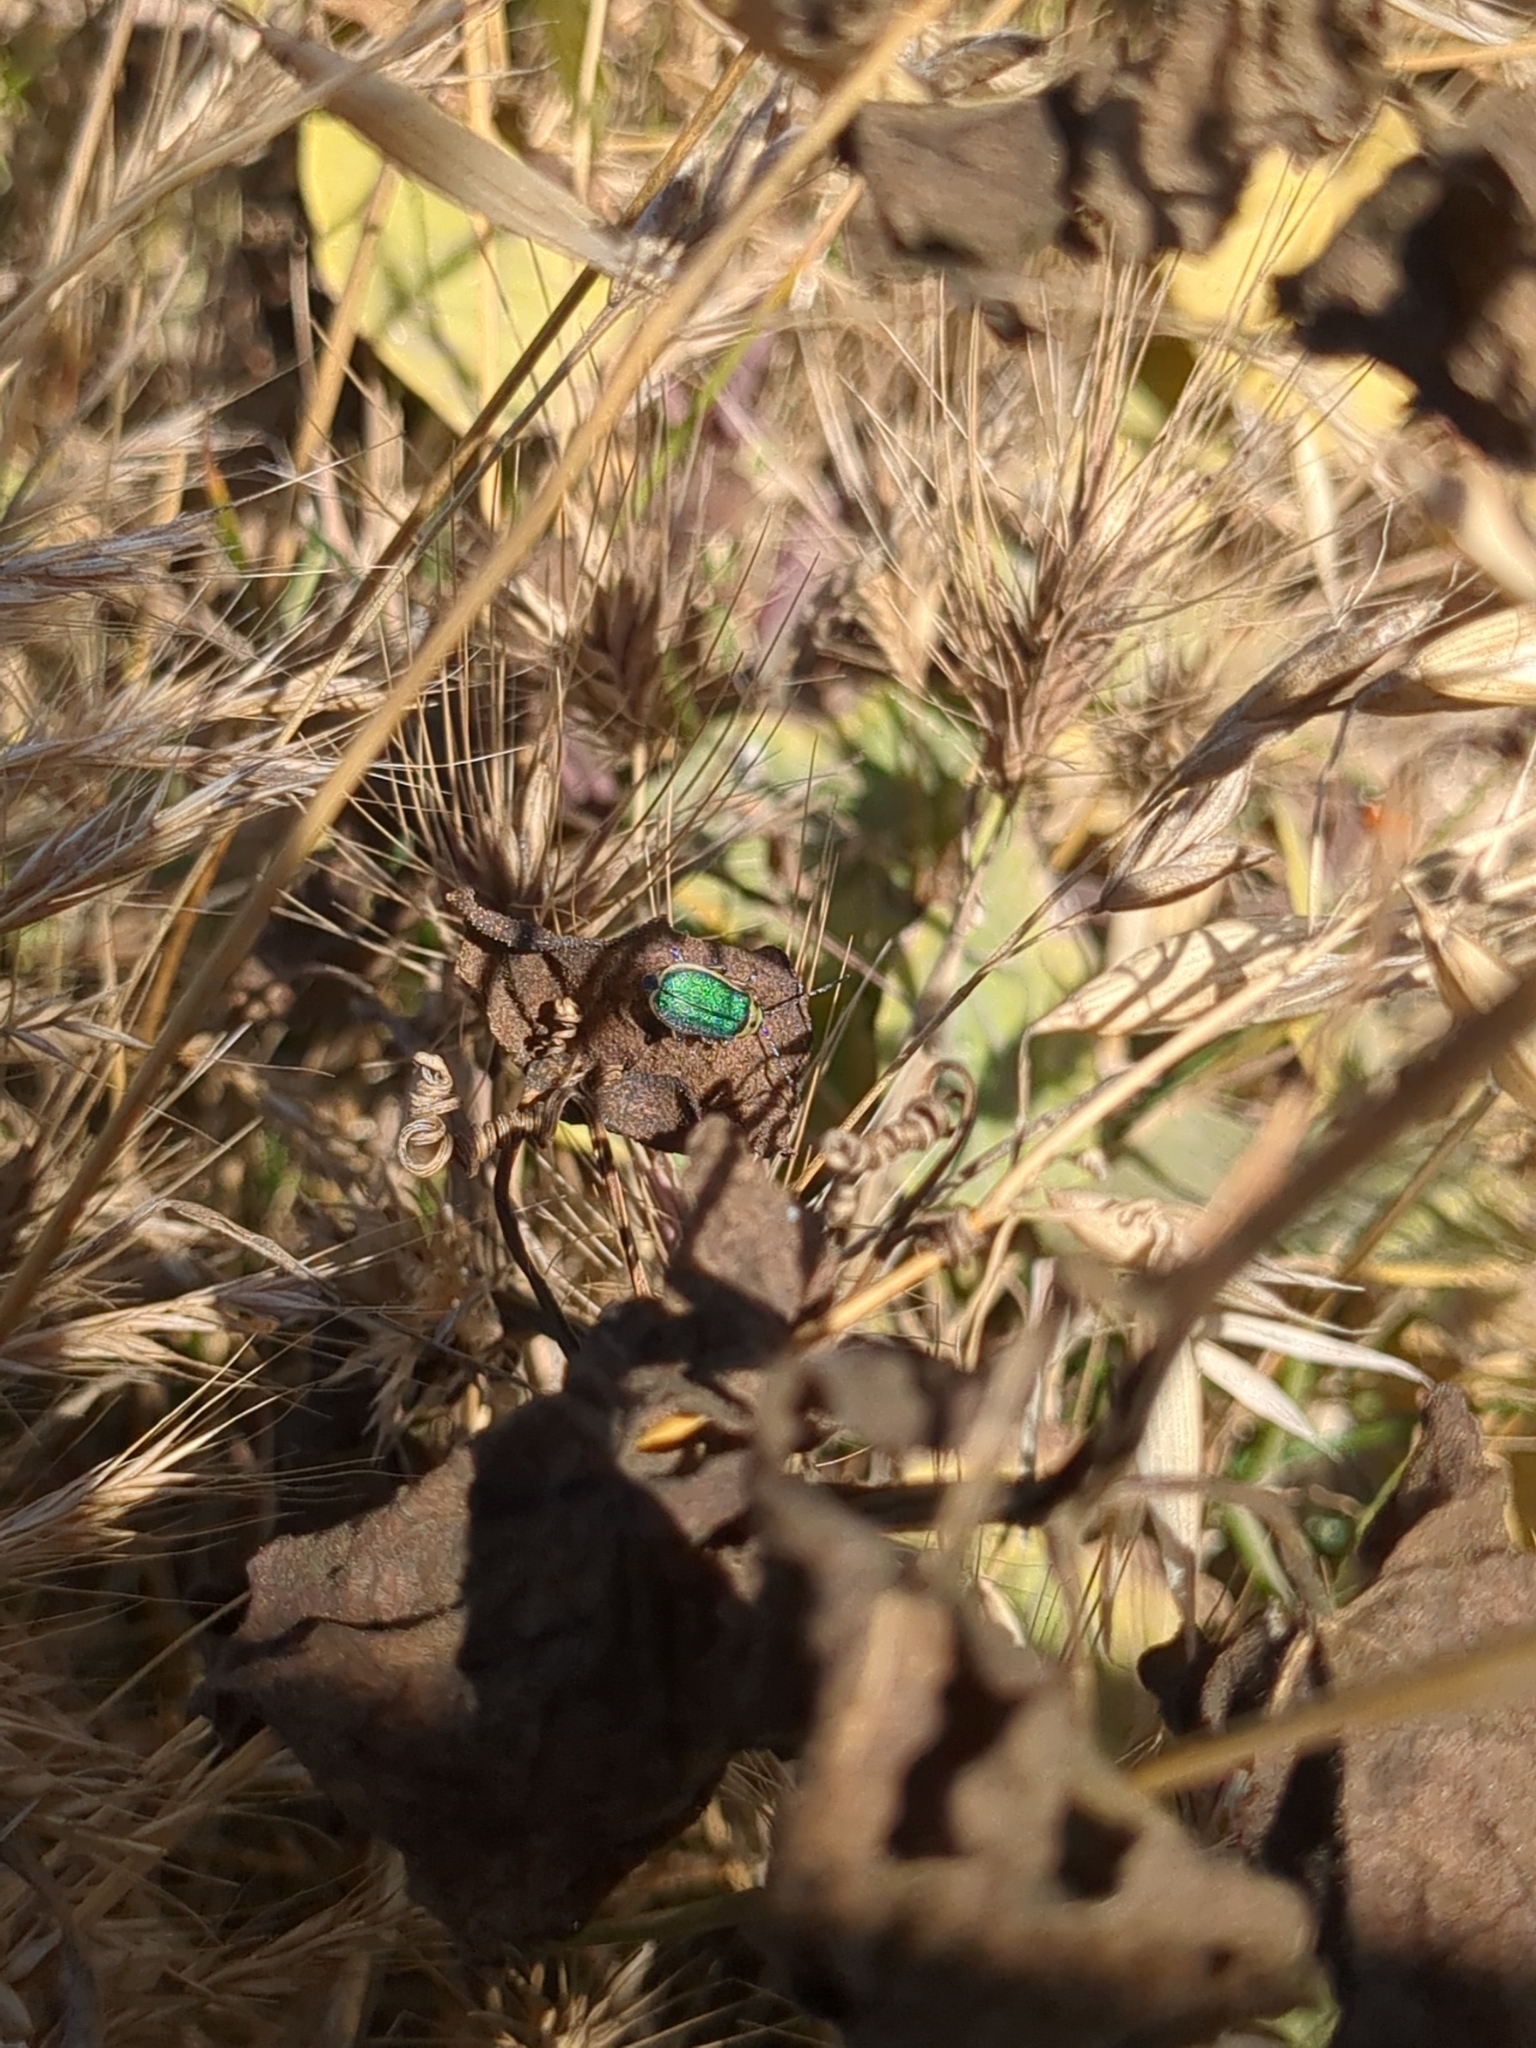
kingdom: Animalia
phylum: Arthropoda
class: Insecta
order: Coleoptera
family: Chrysomelidae
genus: Trirhabda
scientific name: Trirhabda flavolimbata
